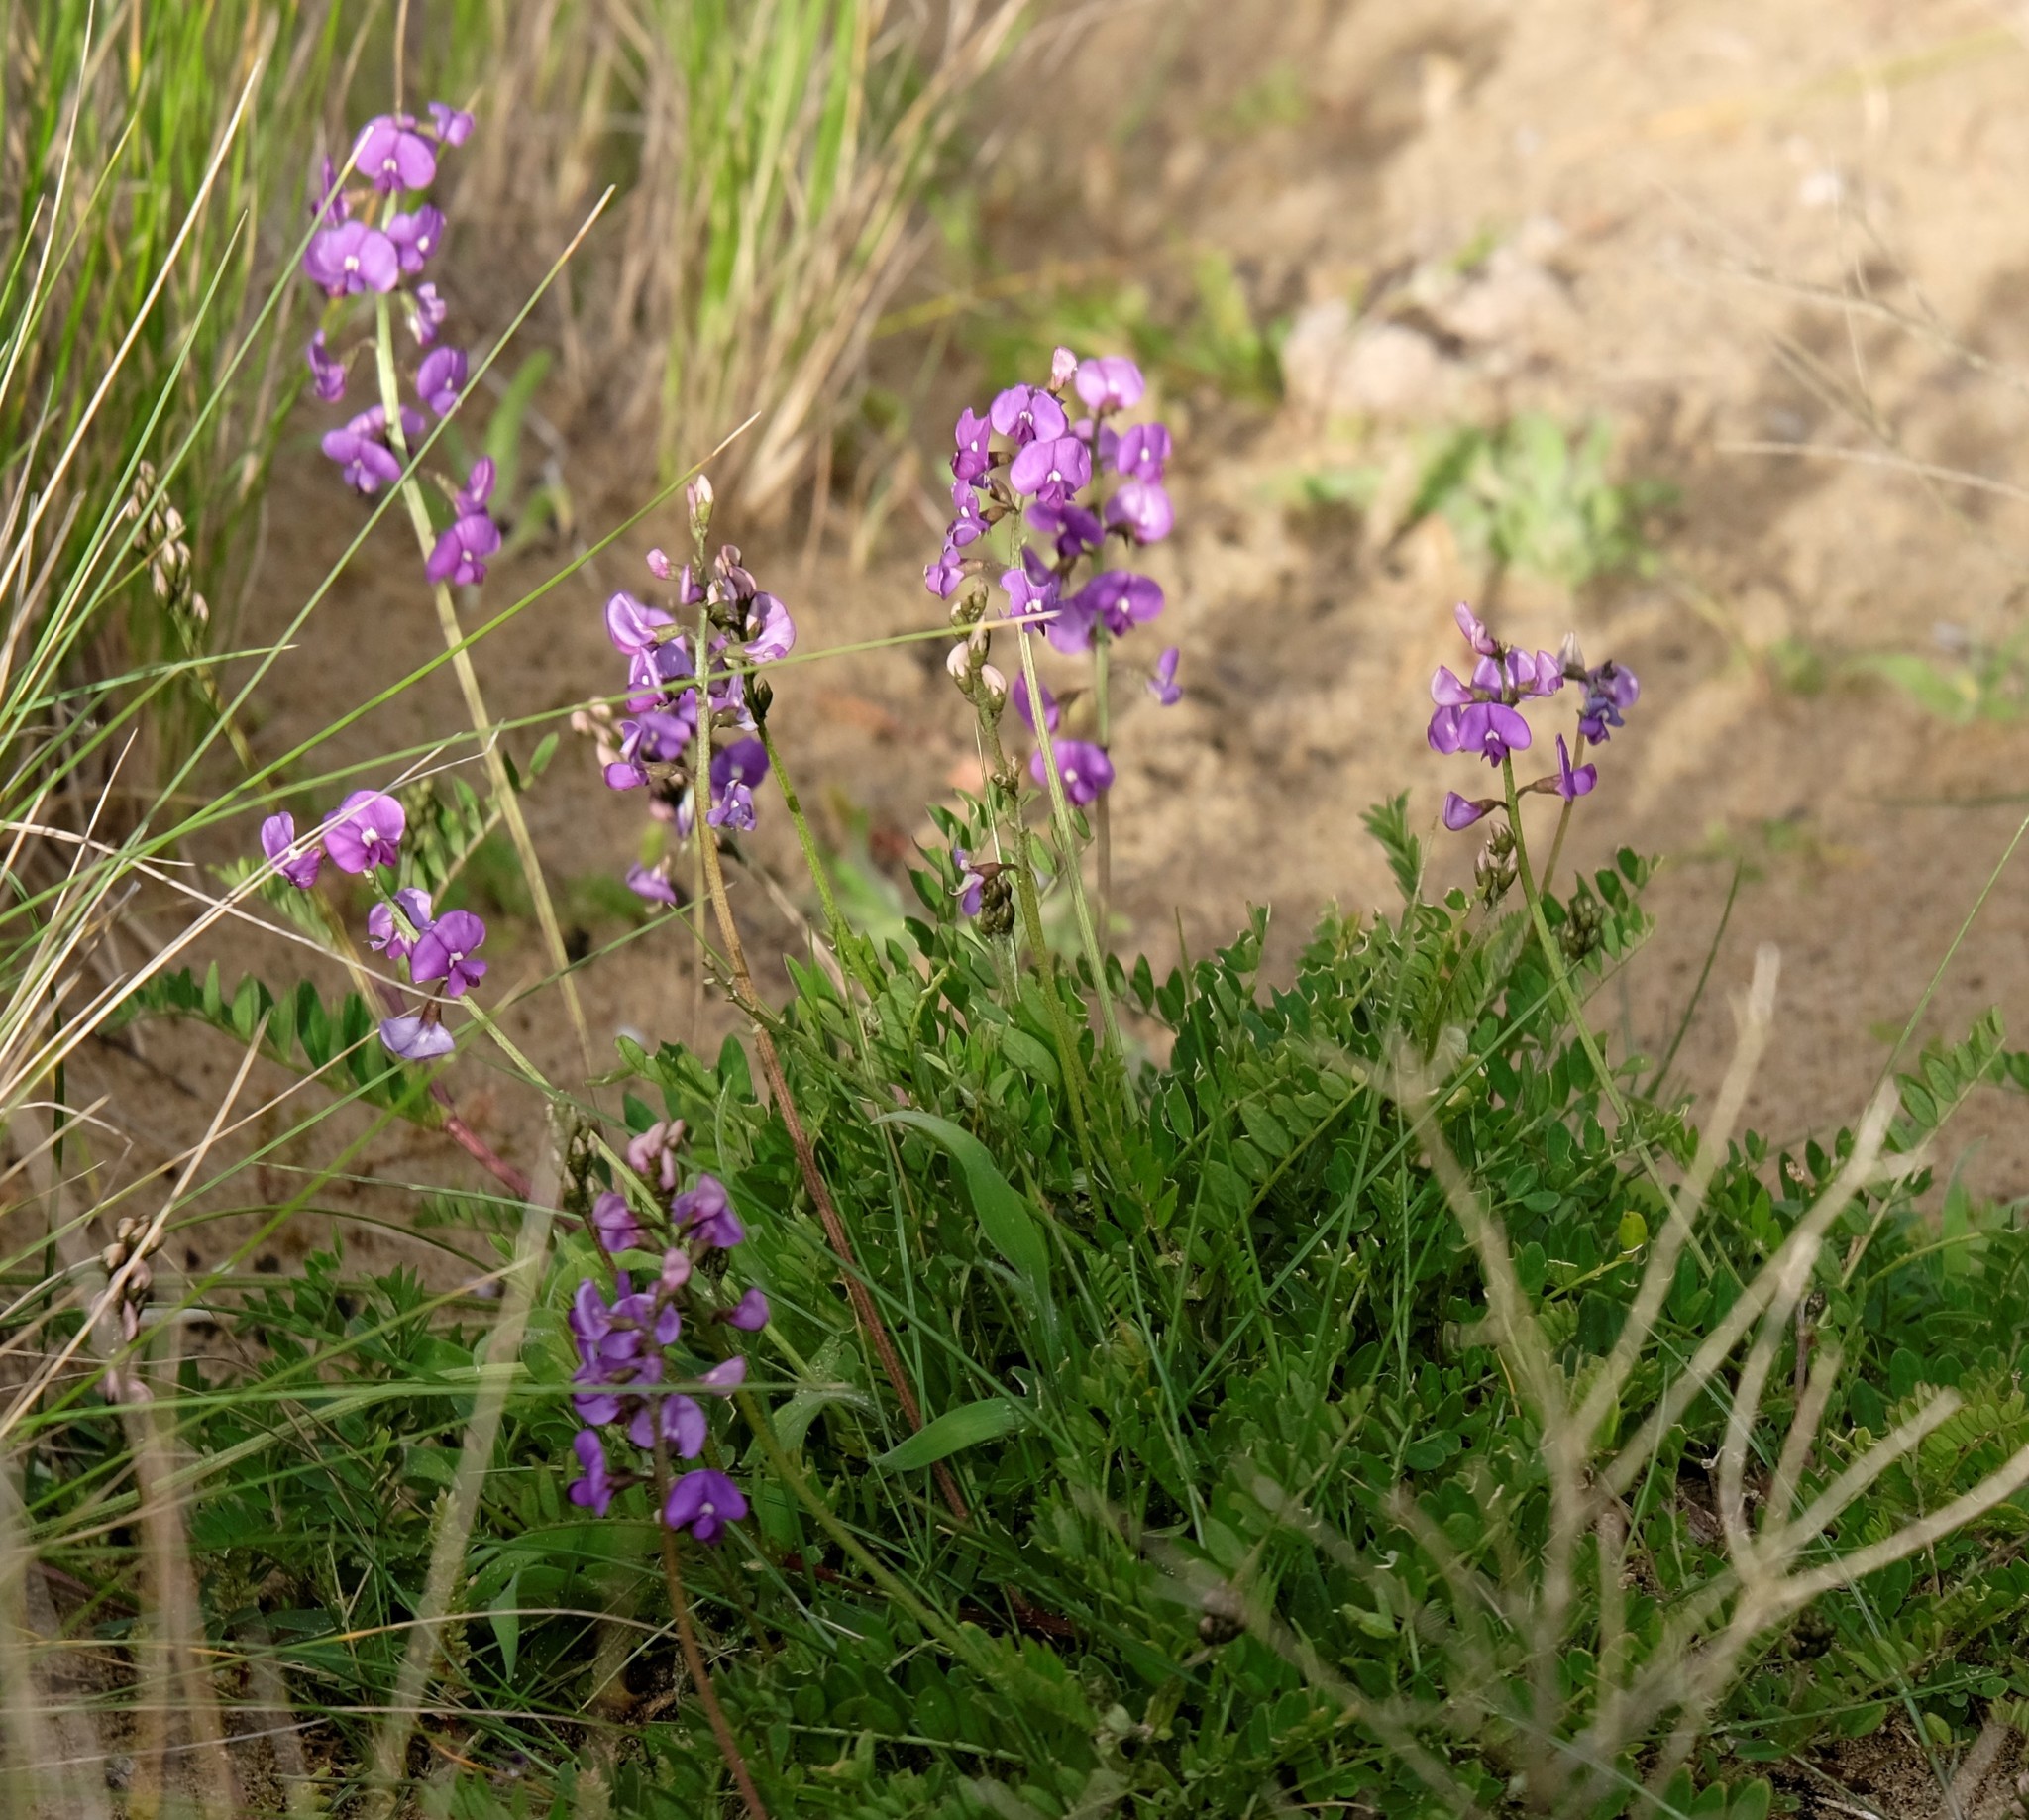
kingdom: Plantae
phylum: Tracheophyta
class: Magnoliopsida
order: Fabales
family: Fabaceae
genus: Swainsona
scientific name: Swainsona lessertiifolia
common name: Bog-pea
